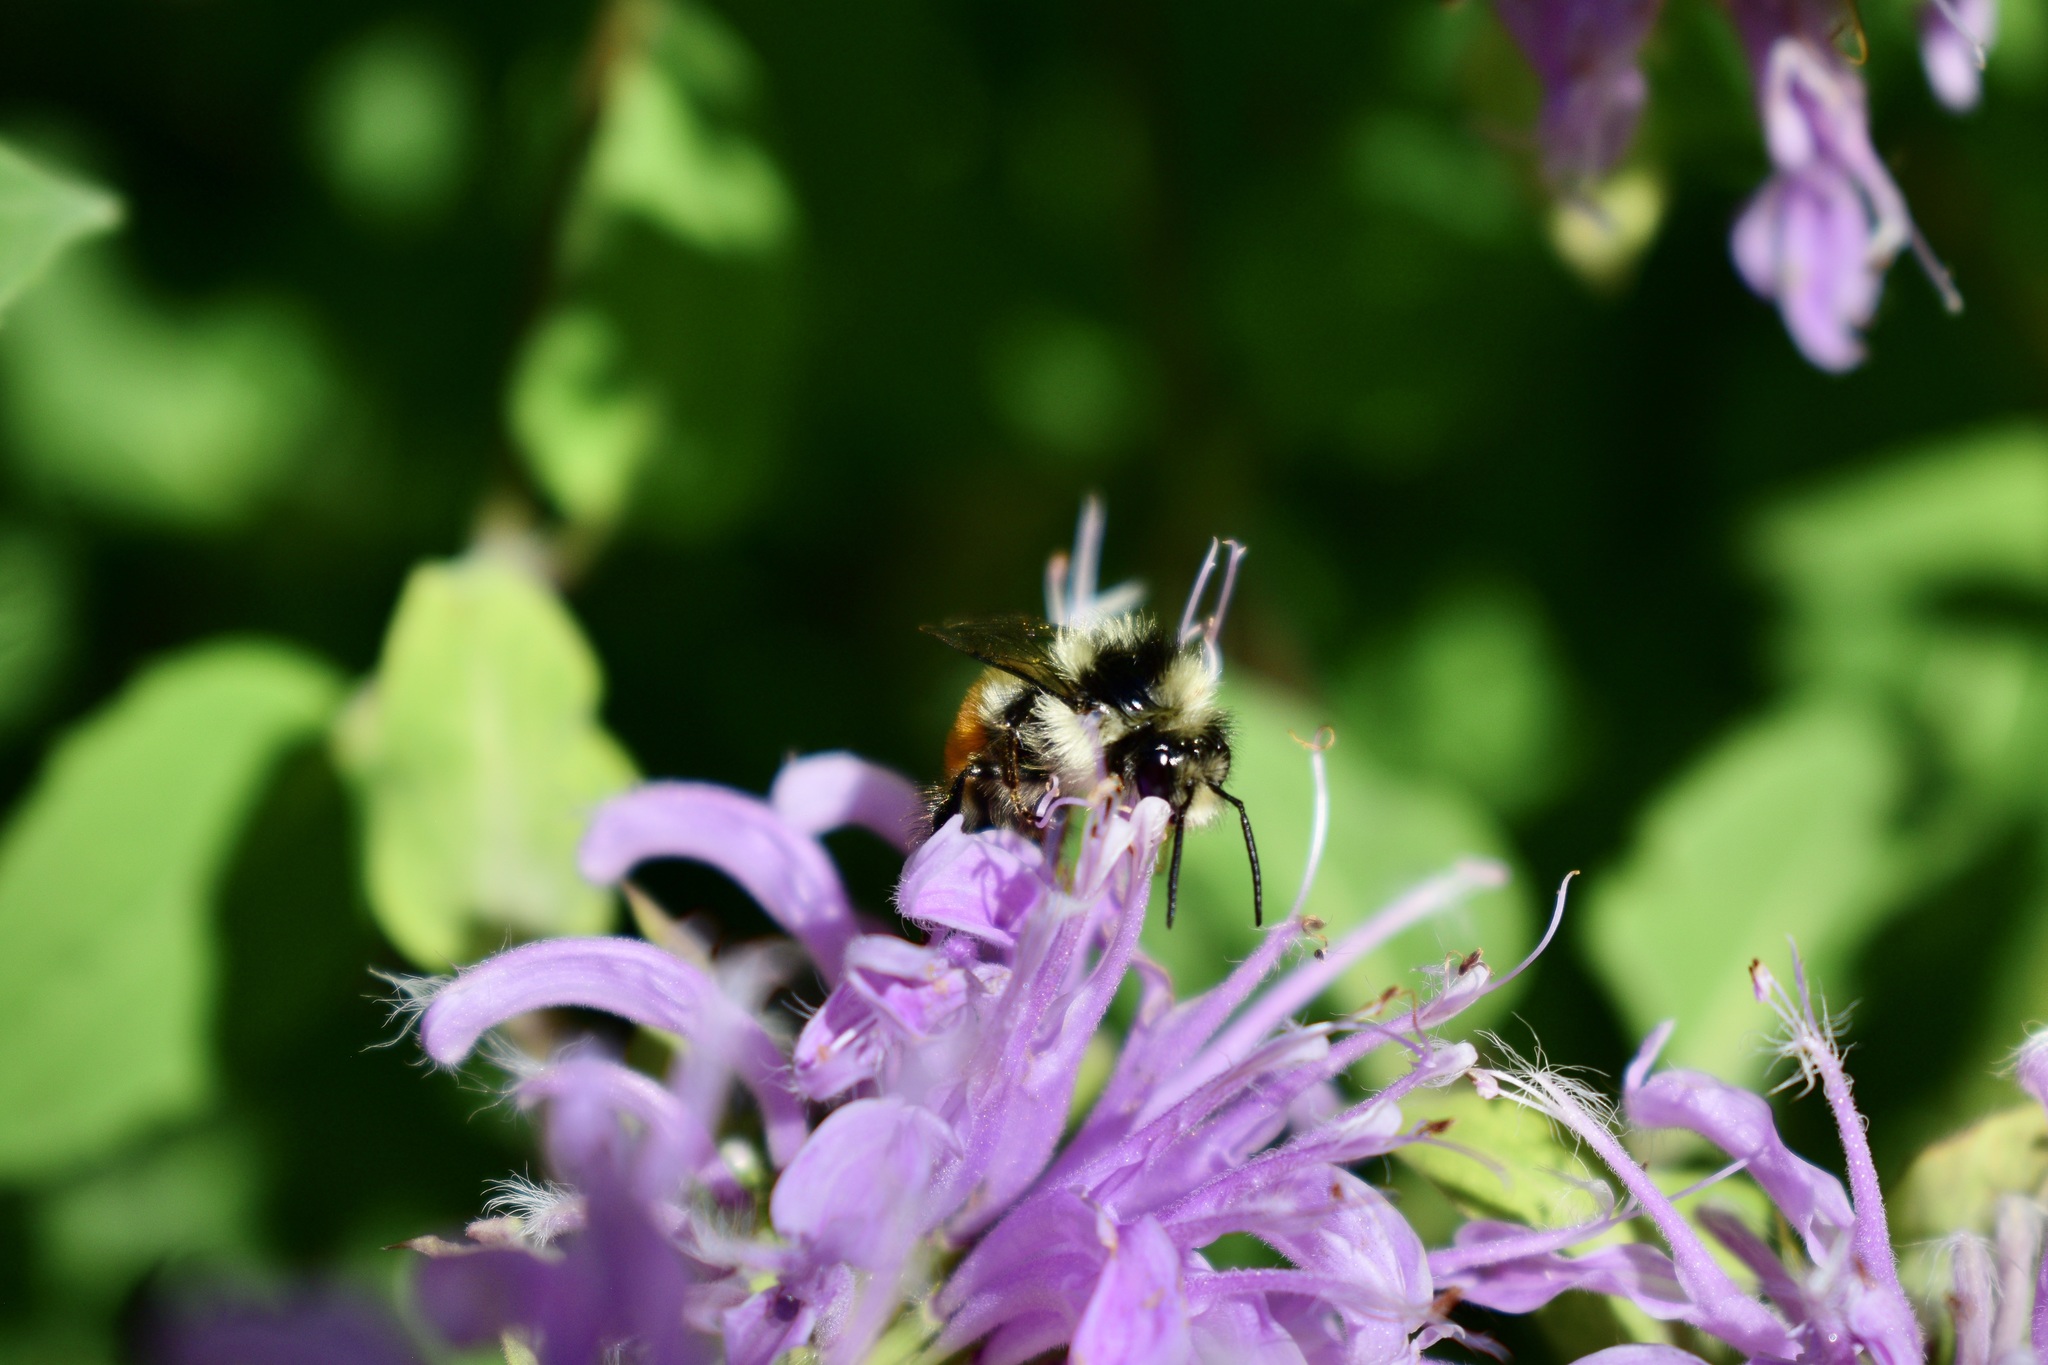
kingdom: Animalia
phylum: Arthropoda
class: Insecta
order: Hymenoptera
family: Apidae
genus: Bombus
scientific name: Bombus ternarius
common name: Tri-colored bumble bee
